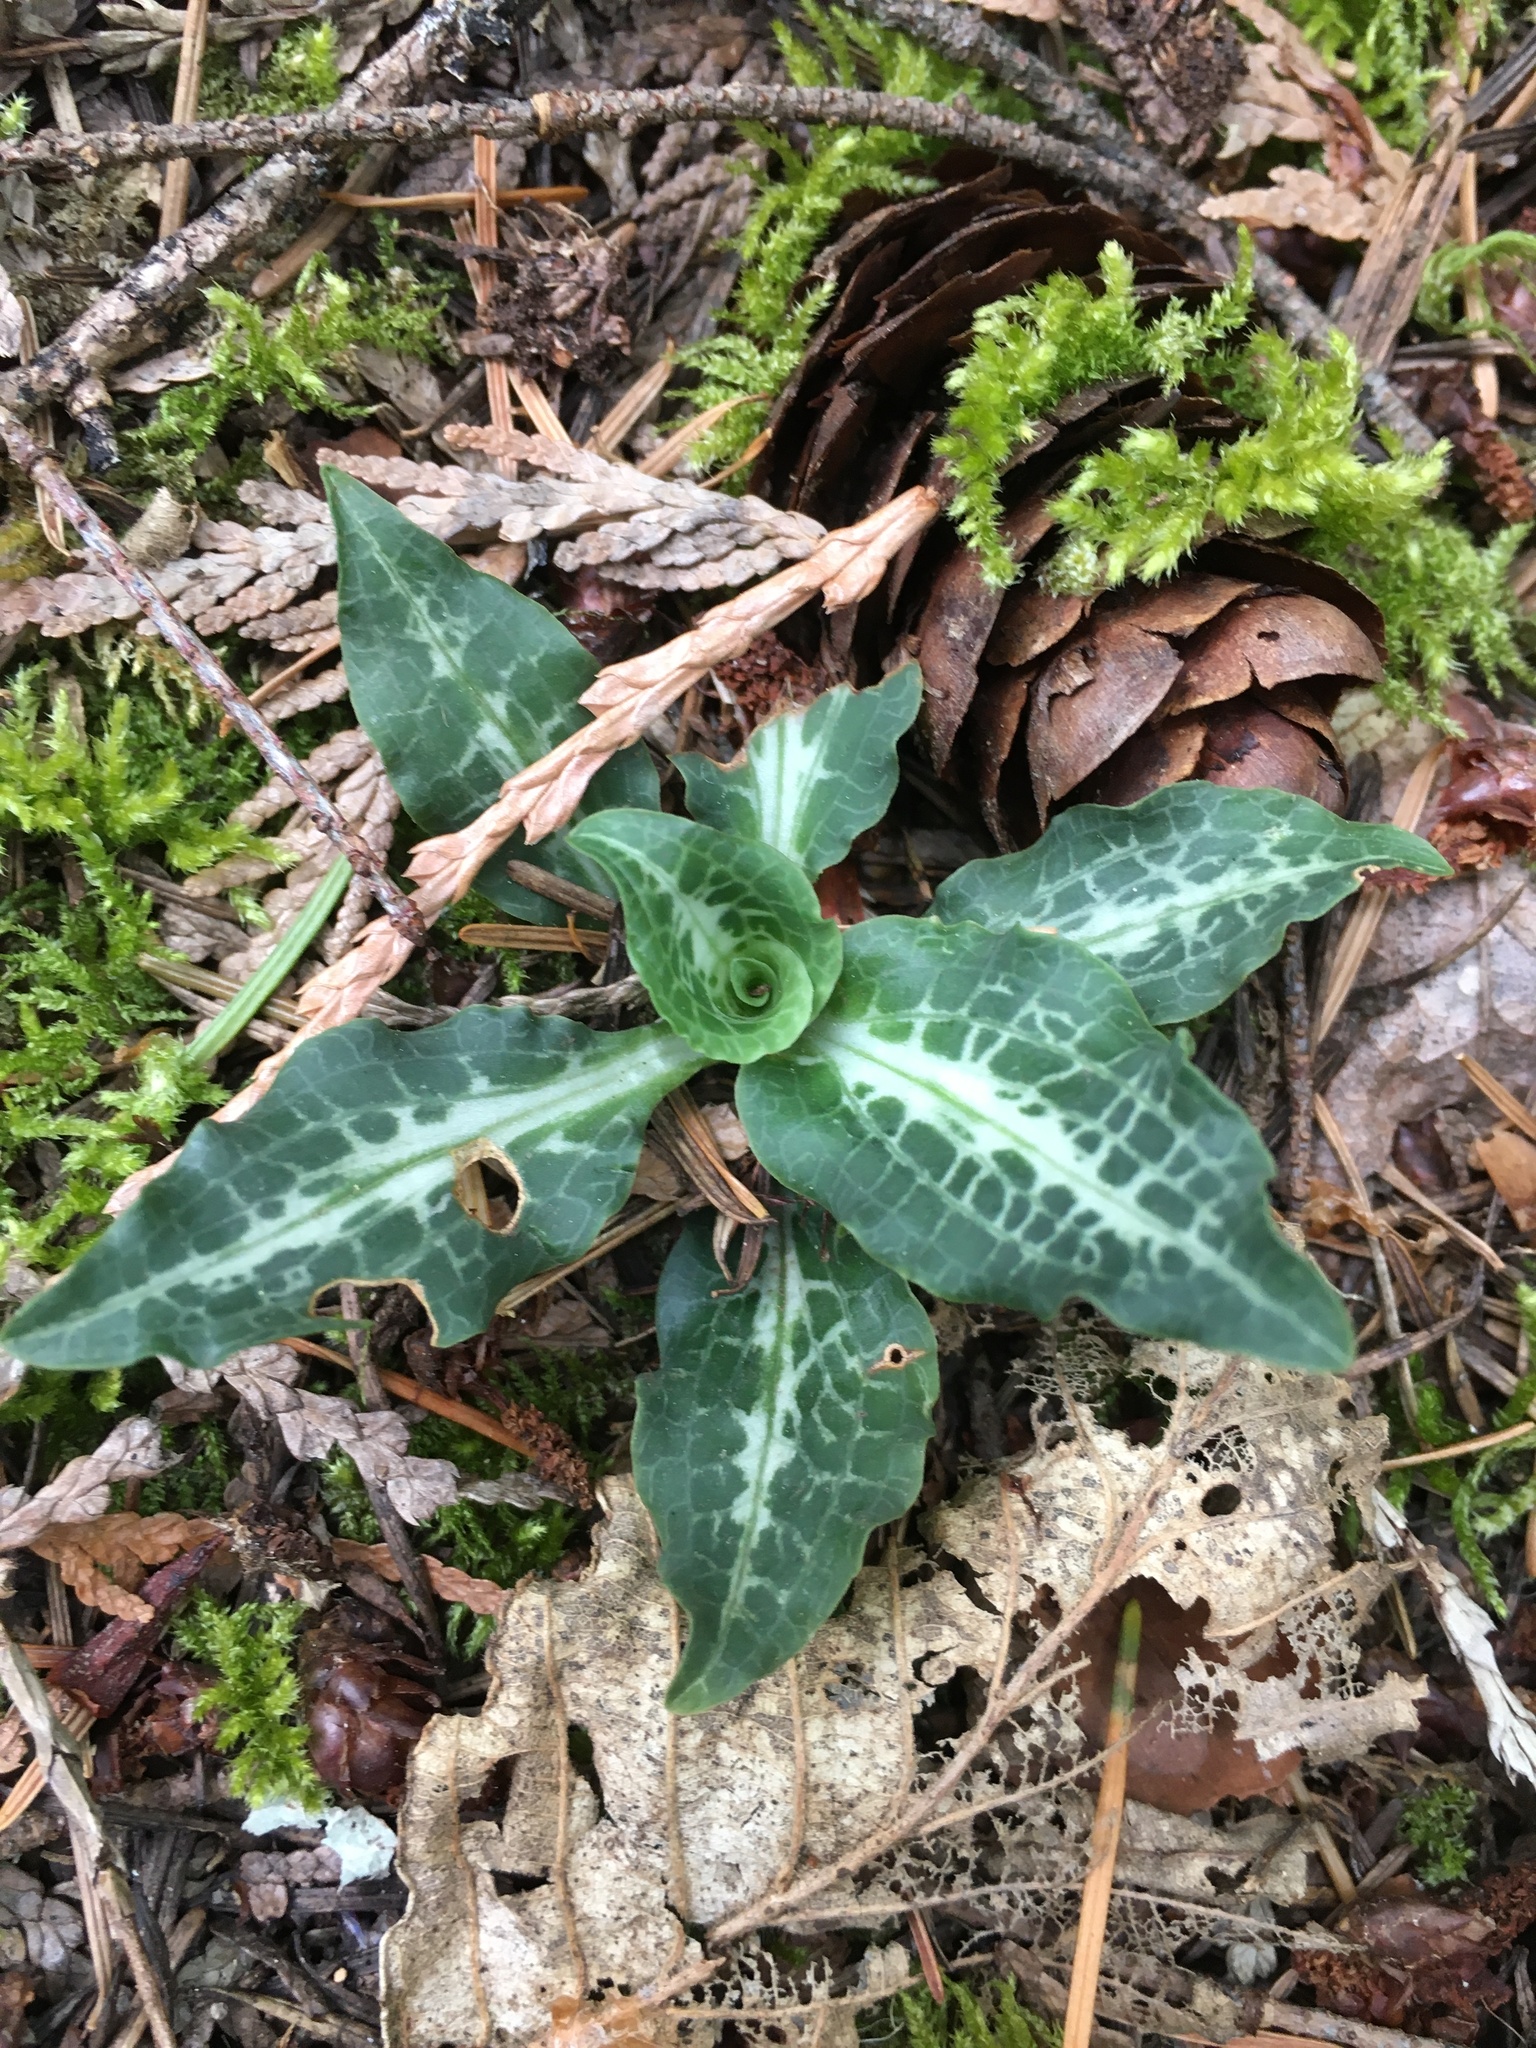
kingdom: Plantae
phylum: Tracheophyta
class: Liliopsida
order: Asparagales
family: Orchidaceae
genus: Goodyera
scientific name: Goodyera oblongifolia
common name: Giant rattlesnake-plantain
